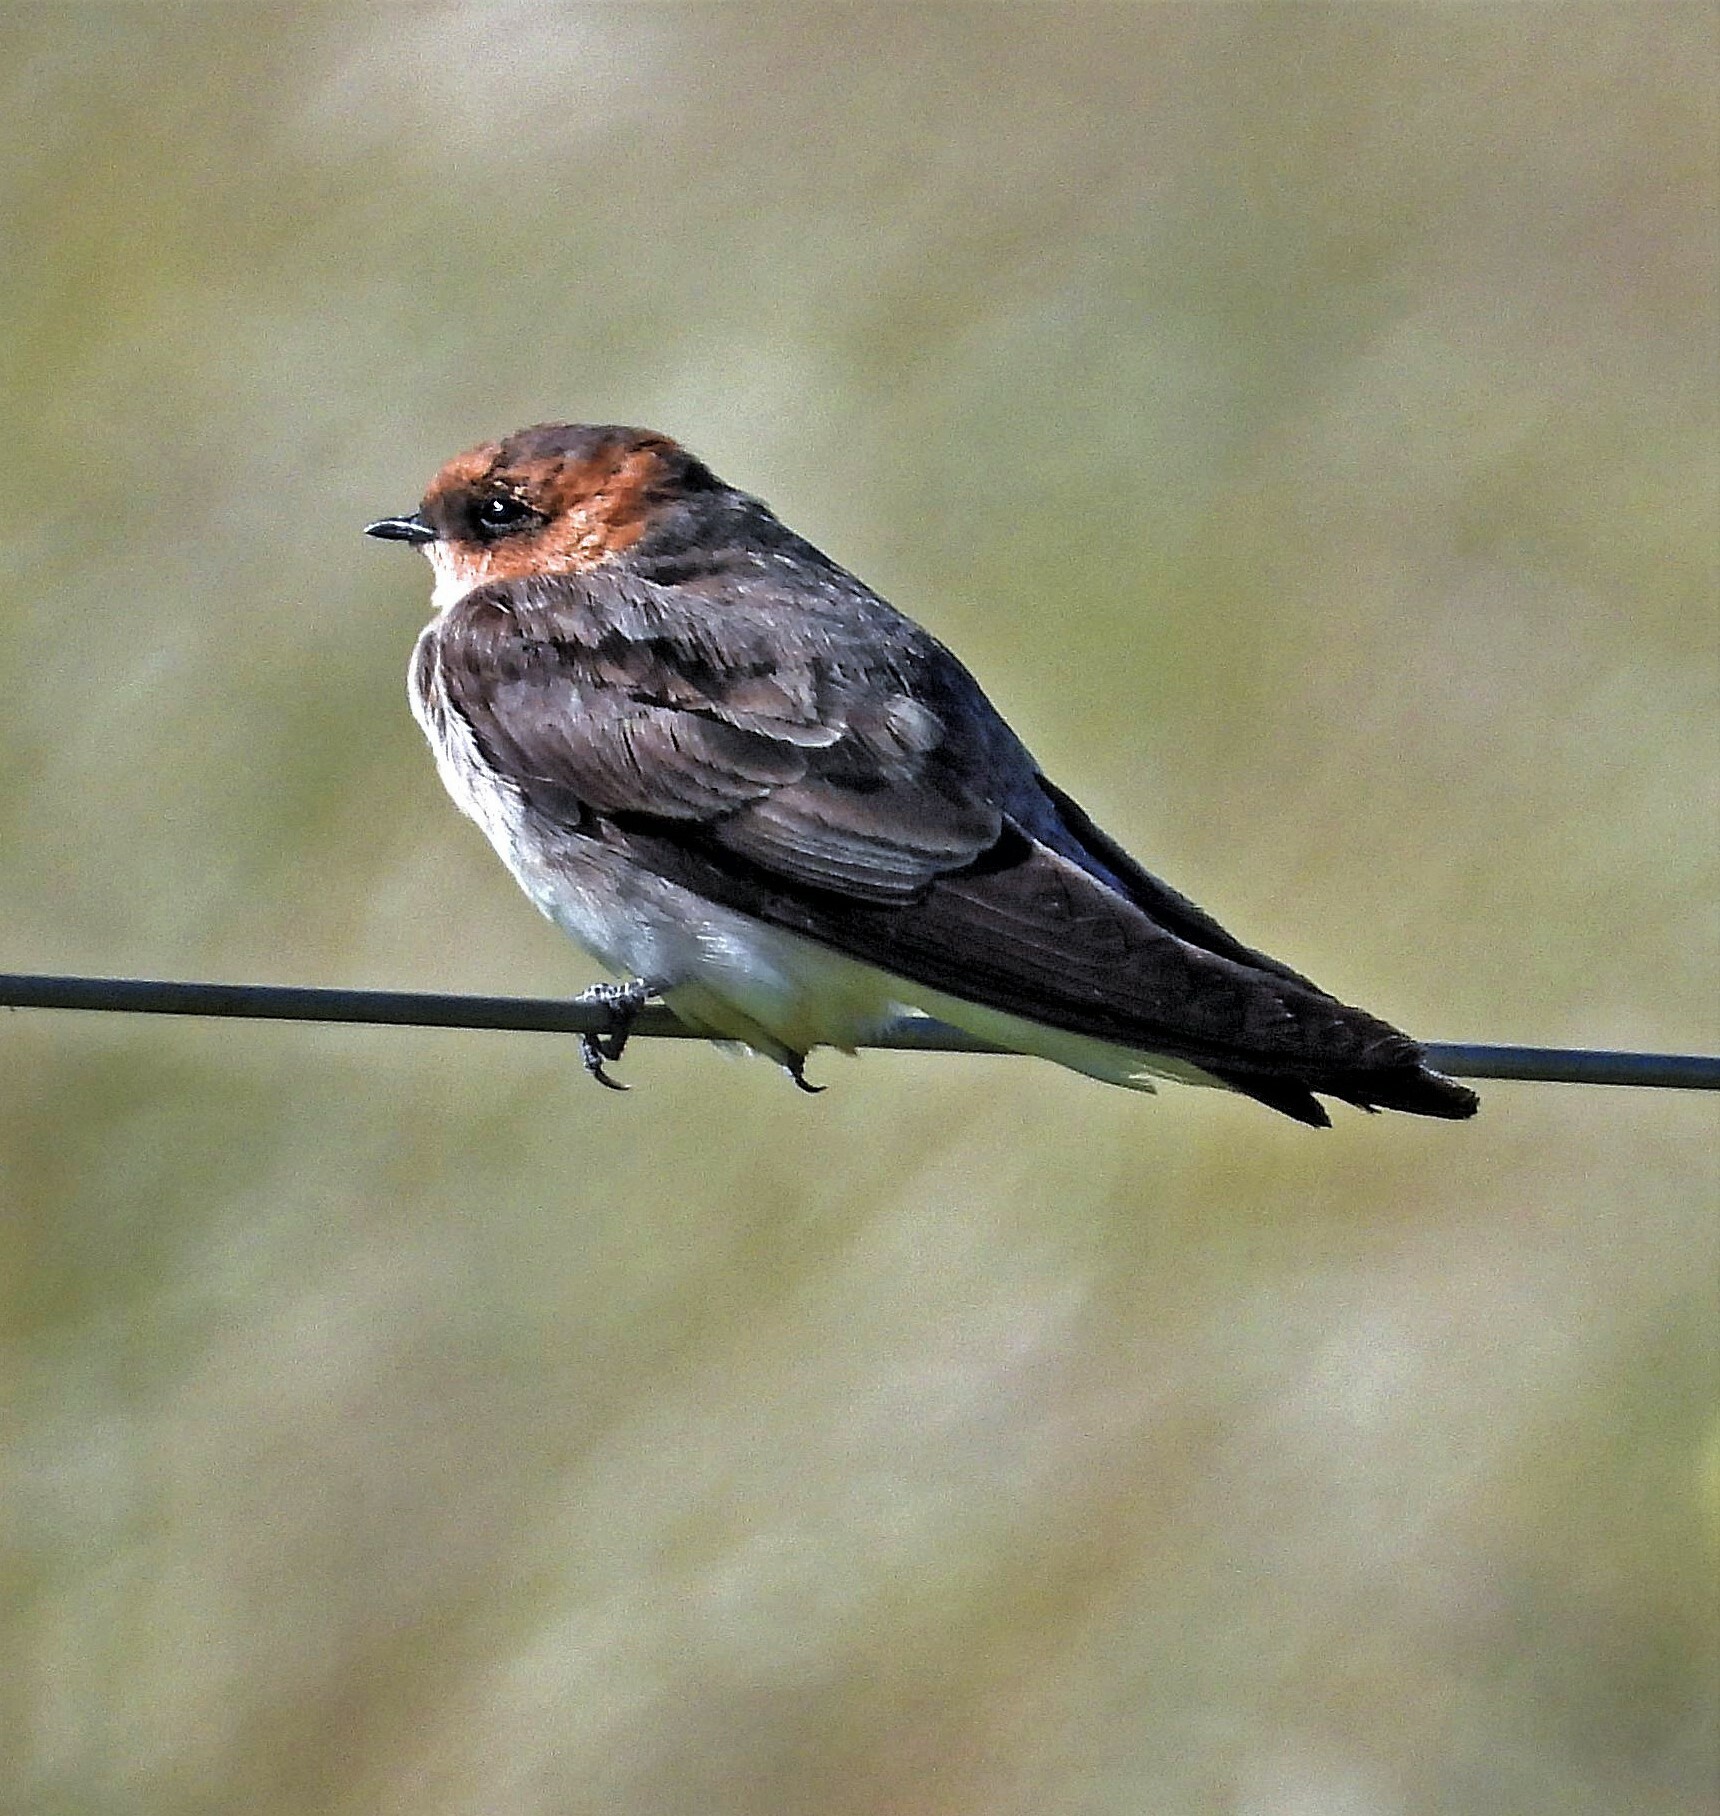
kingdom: Animalia
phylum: Chordata
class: Aves
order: Passeriformes
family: Hirundinidae
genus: Alopochelidon
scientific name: Alopochelidon fucata
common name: Tawny-headed swallow
